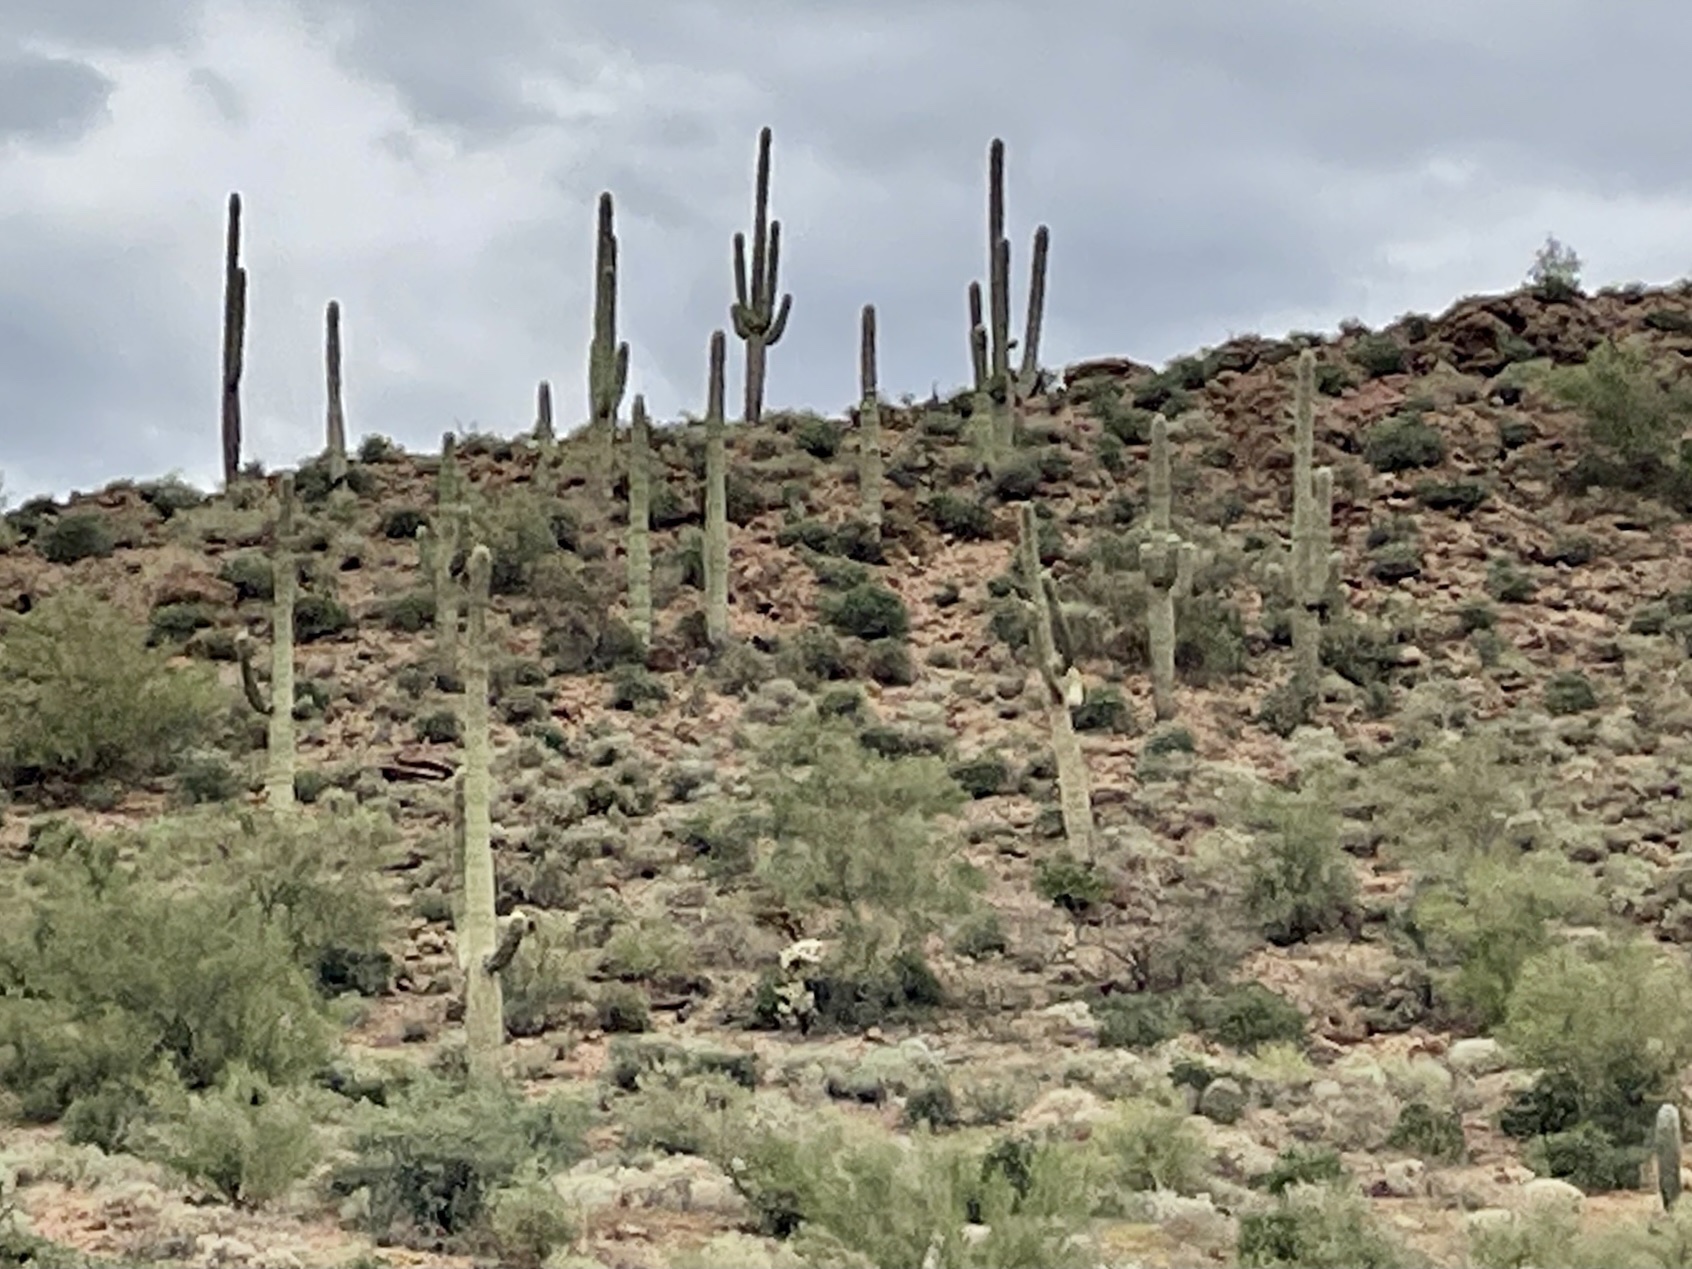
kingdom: Plantae
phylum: Tracheophyta
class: Magnoliopsida
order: Caryophyllales
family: Cactaceae
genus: Carnegiea
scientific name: Carnegiea gigantea
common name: Saguaro
